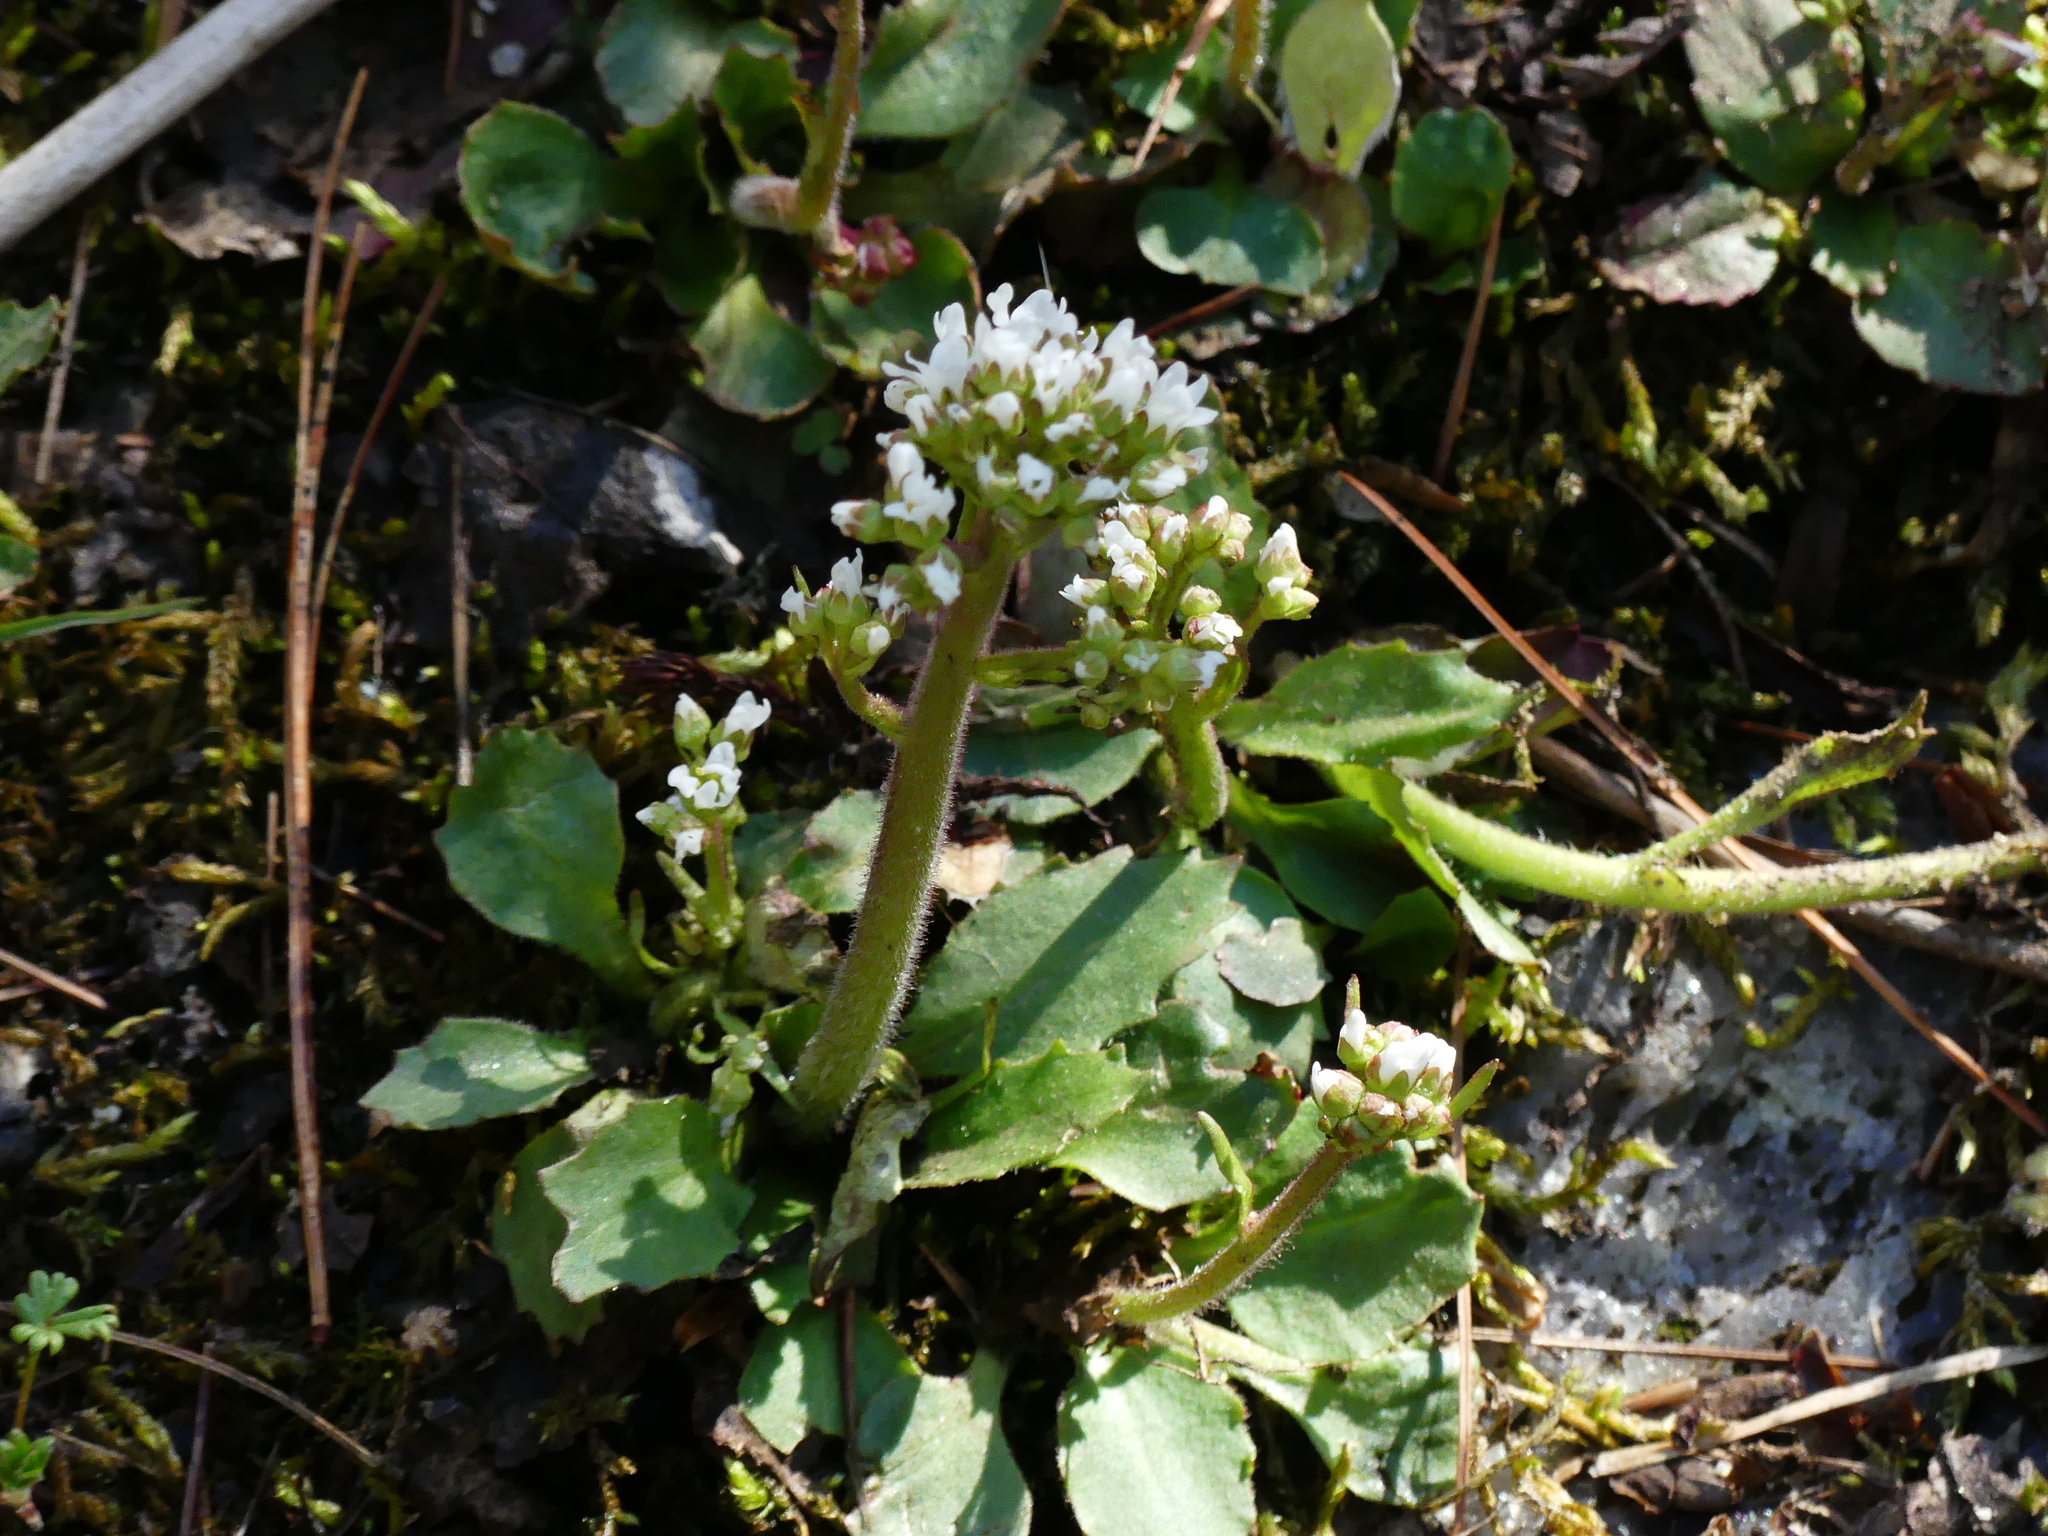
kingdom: Plantae
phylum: Tracheophyta
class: Magnoliopsida
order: Saxifragales
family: Saxifragaceae
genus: Micranthes
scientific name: Micranthes virginiensis
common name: Early saxifrage
